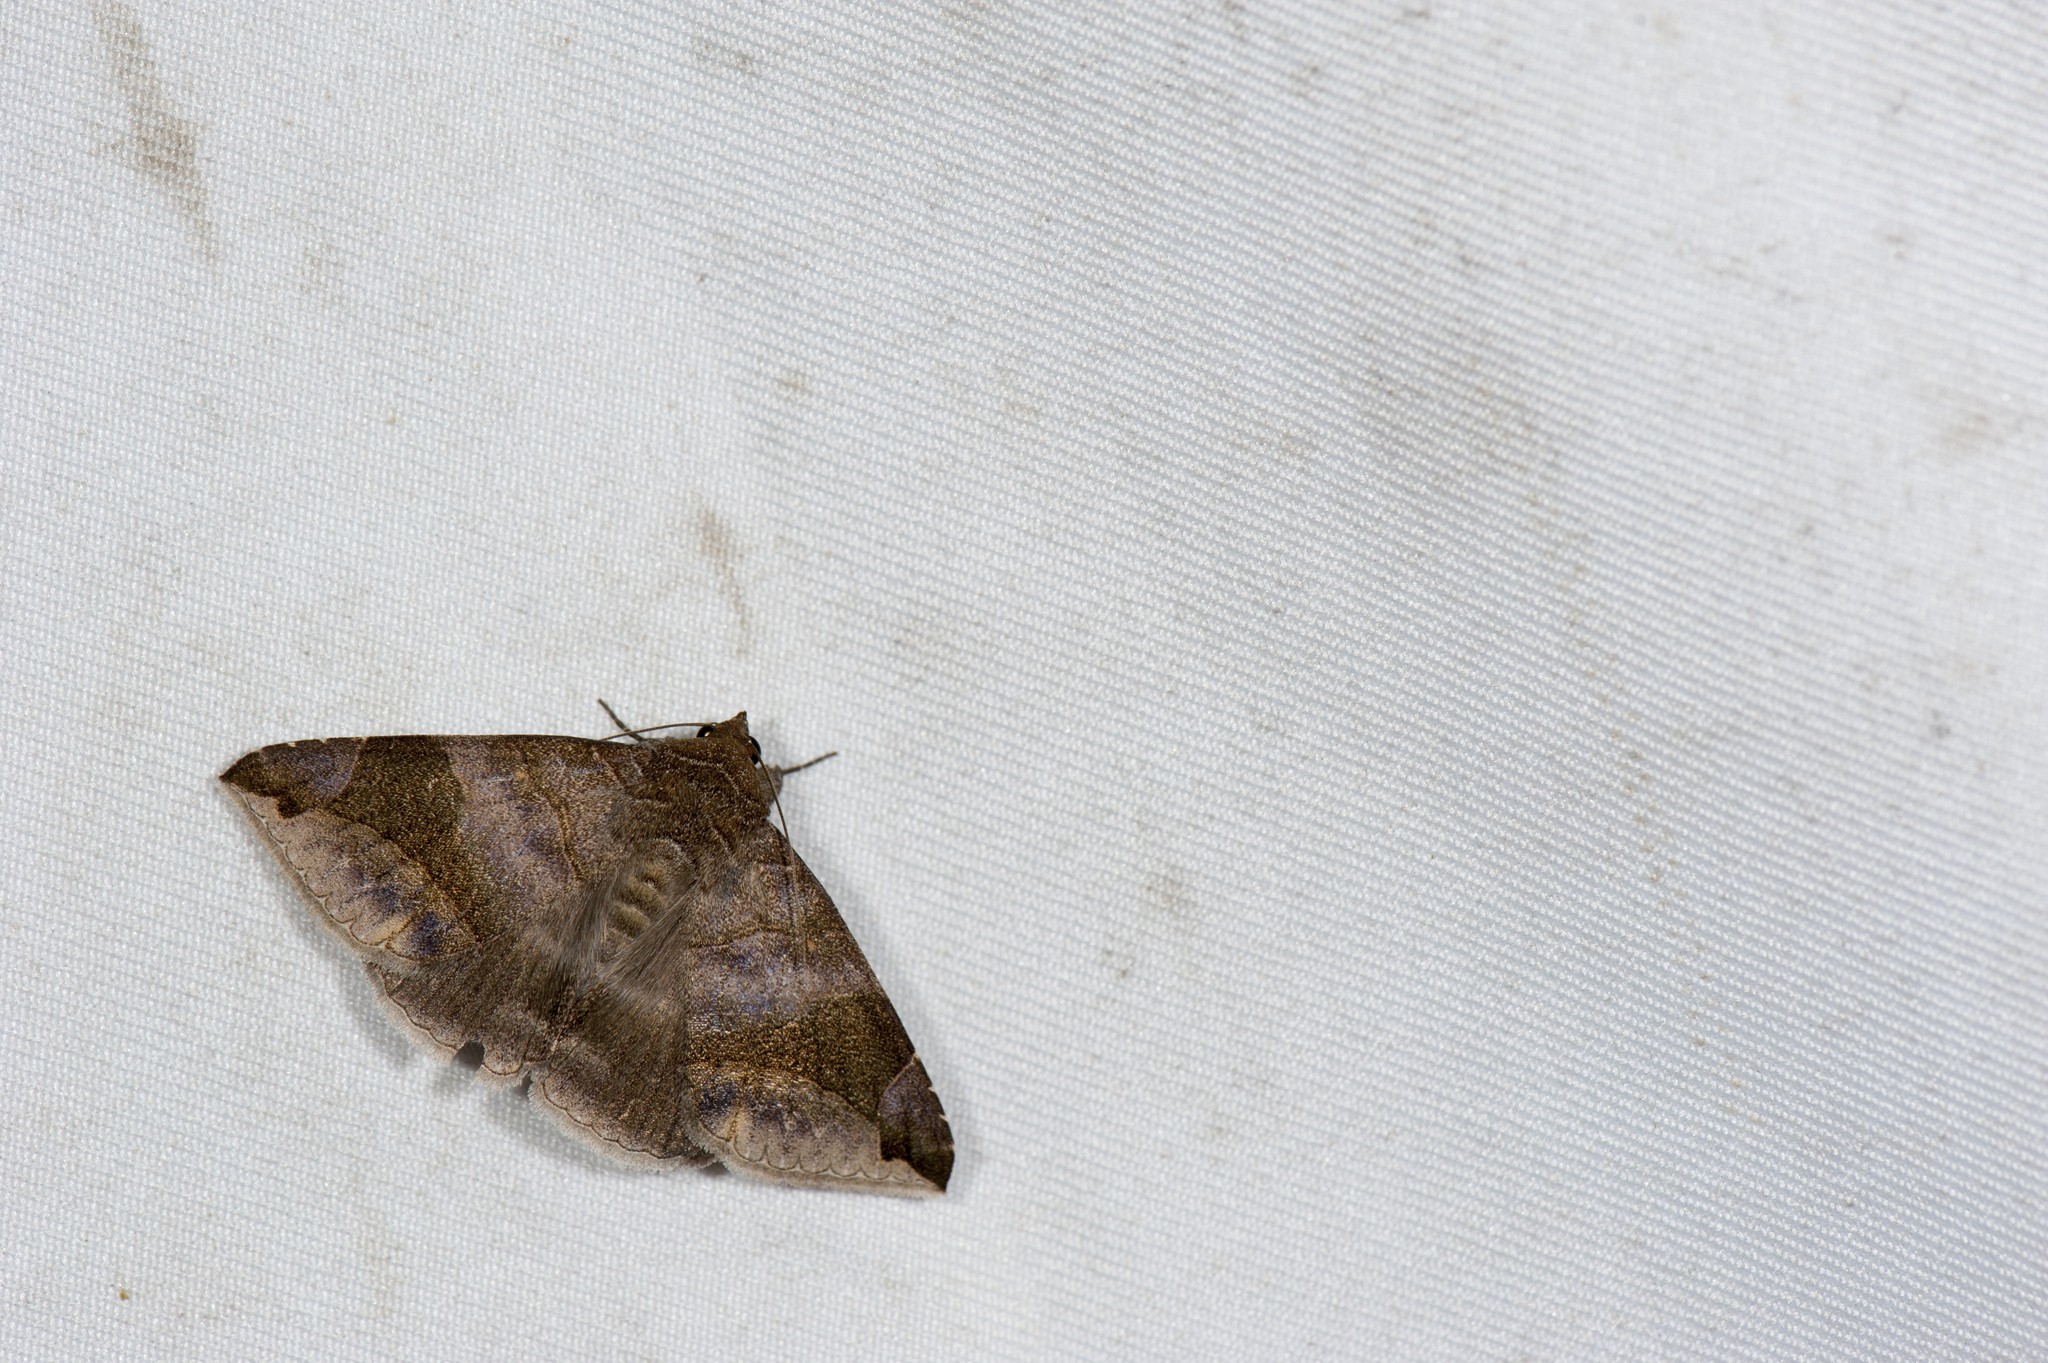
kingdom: Animalia
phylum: Arthropoda
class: Insecta
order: Lepidoptera
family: Erebidae
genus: Bastilla
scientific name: Bastilla amygdalis
